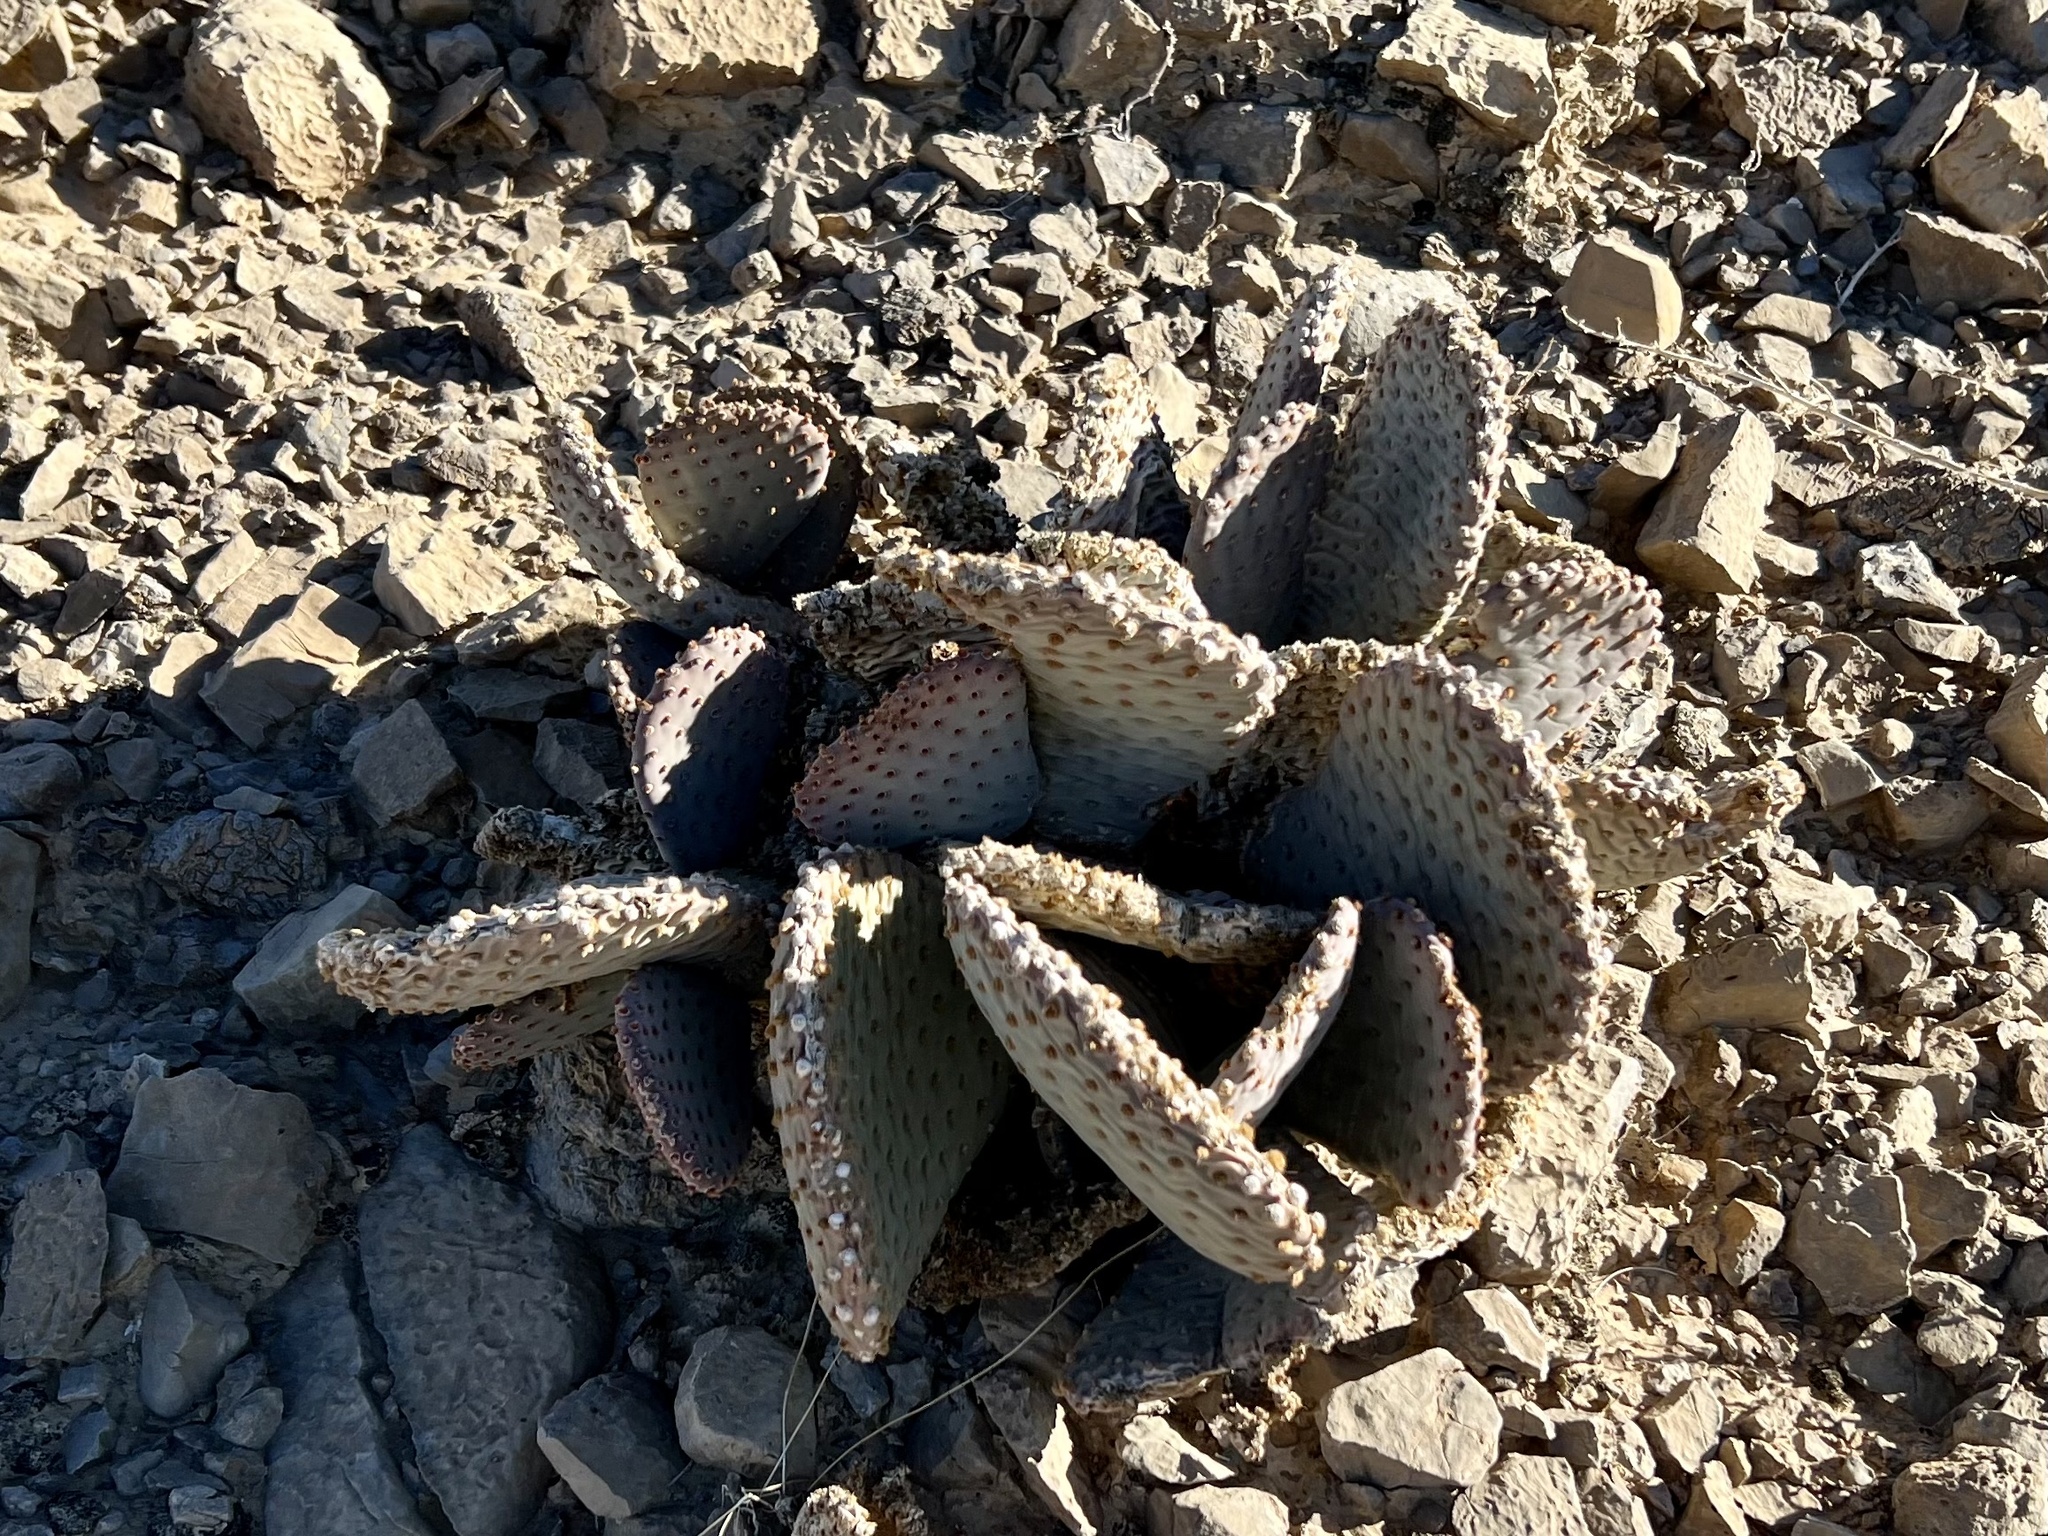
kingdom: Plantae
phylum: Tracheophyta
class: Magnoliopsida
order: Caryophyllales
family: Cactaceae
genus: Opuntia
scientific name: Opuntia basilaris
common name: Beavertail prickly-pear
